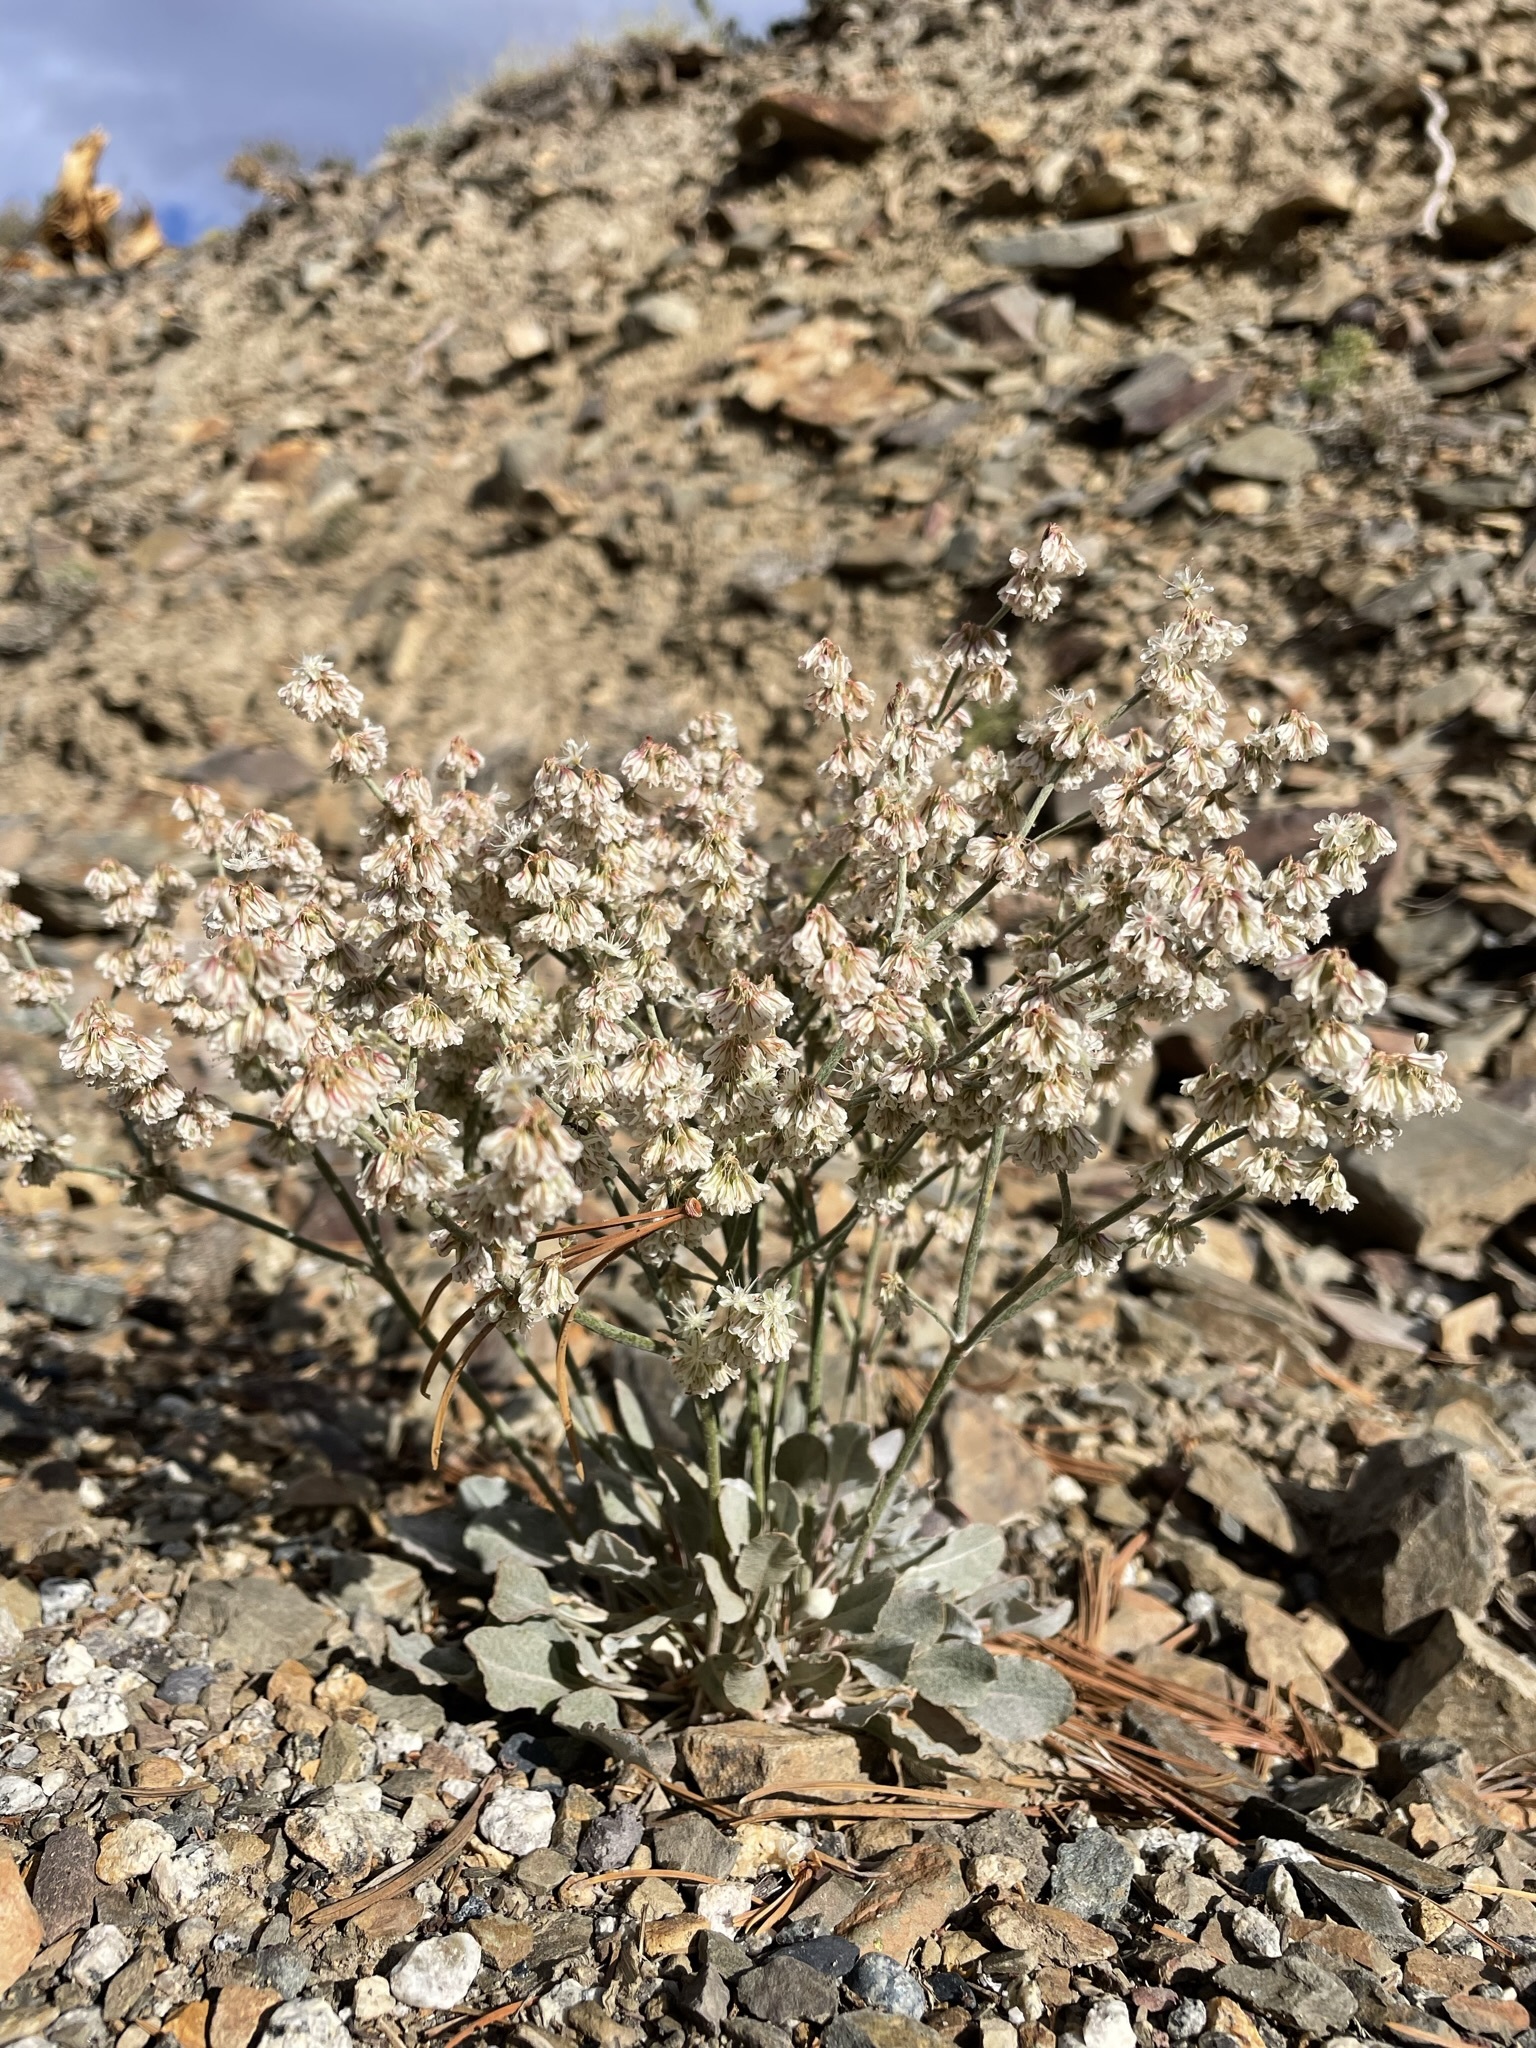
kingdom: Plantae
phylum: Tracheophyta
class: Magnoliopsida
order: Caryophyllales
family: Polygonaceae
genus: Eriogonum
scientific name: Eriogonum rupinum
